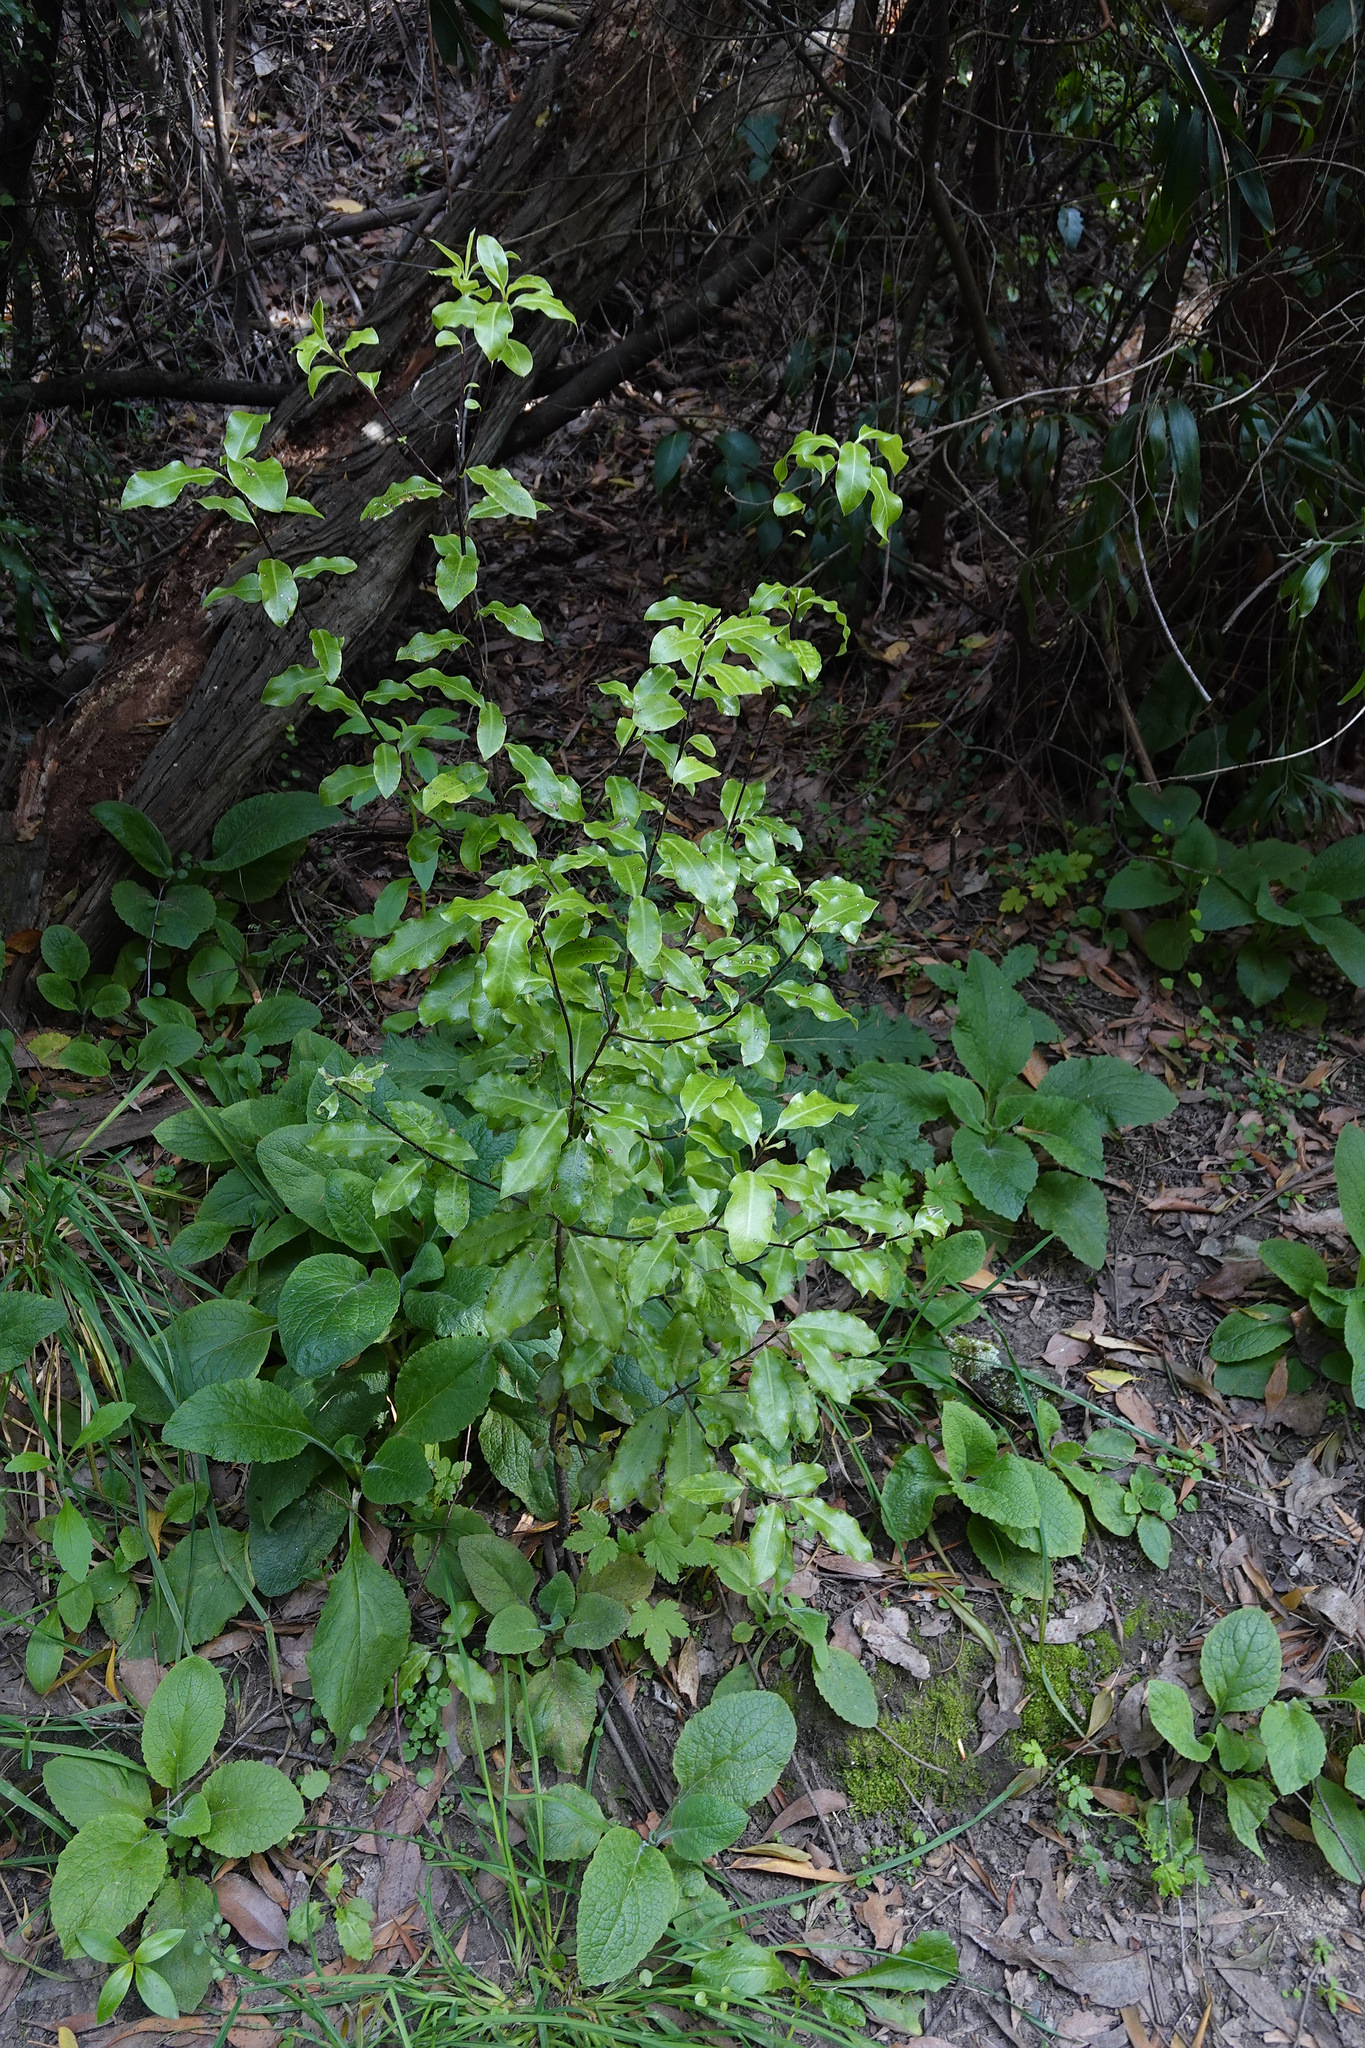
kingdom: Plantae
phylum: Tracheophyta
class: Magnoliopsida
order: Apiales
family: Pittosporaceae
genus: Pittosporum
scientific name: Pittosporum tenuifolium
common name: Kohuhu
